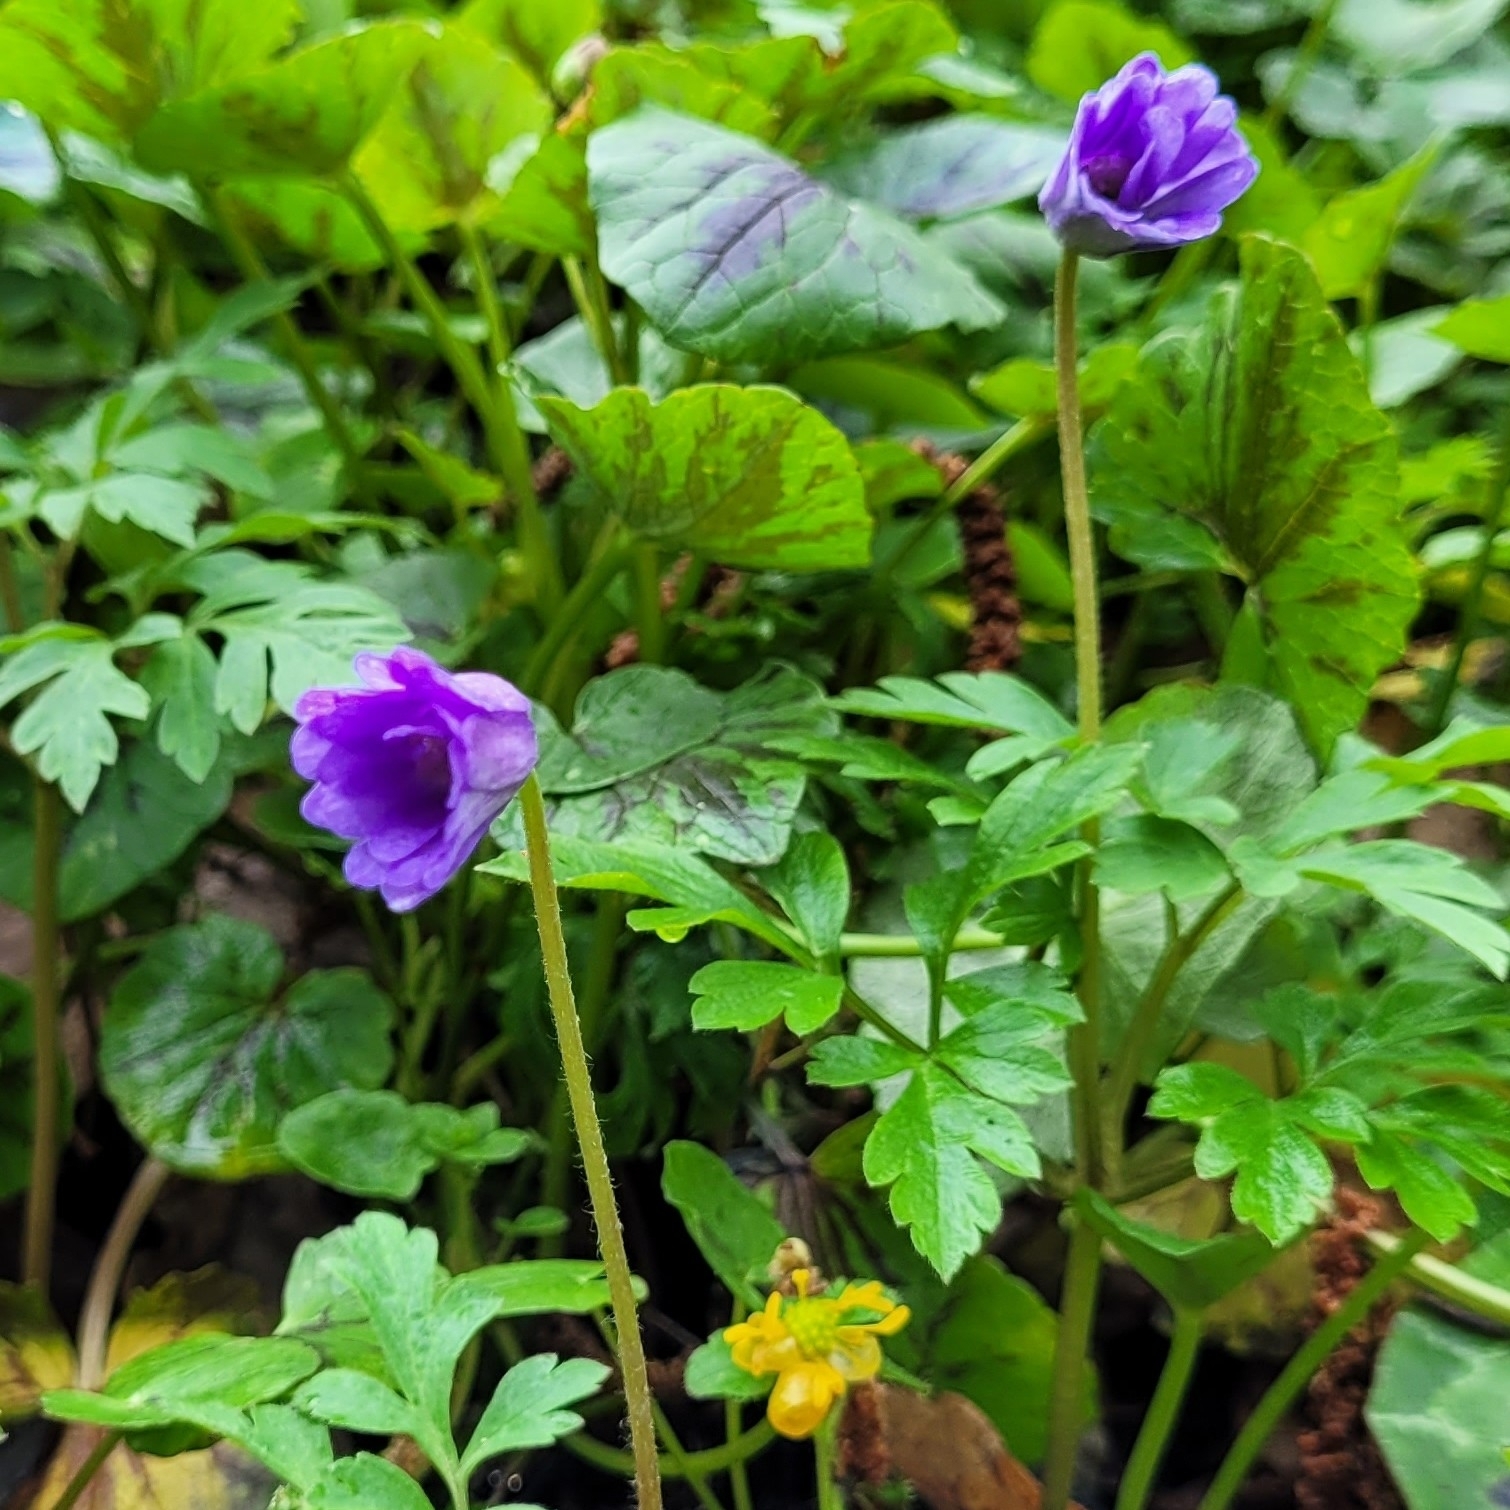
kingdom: Plantae
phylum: Tracheophyta
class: Magnoliopsida
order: Ranunculales
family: Ranunculaceae
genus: Anemone
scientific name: Anemone apennina
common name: Blue anemone
